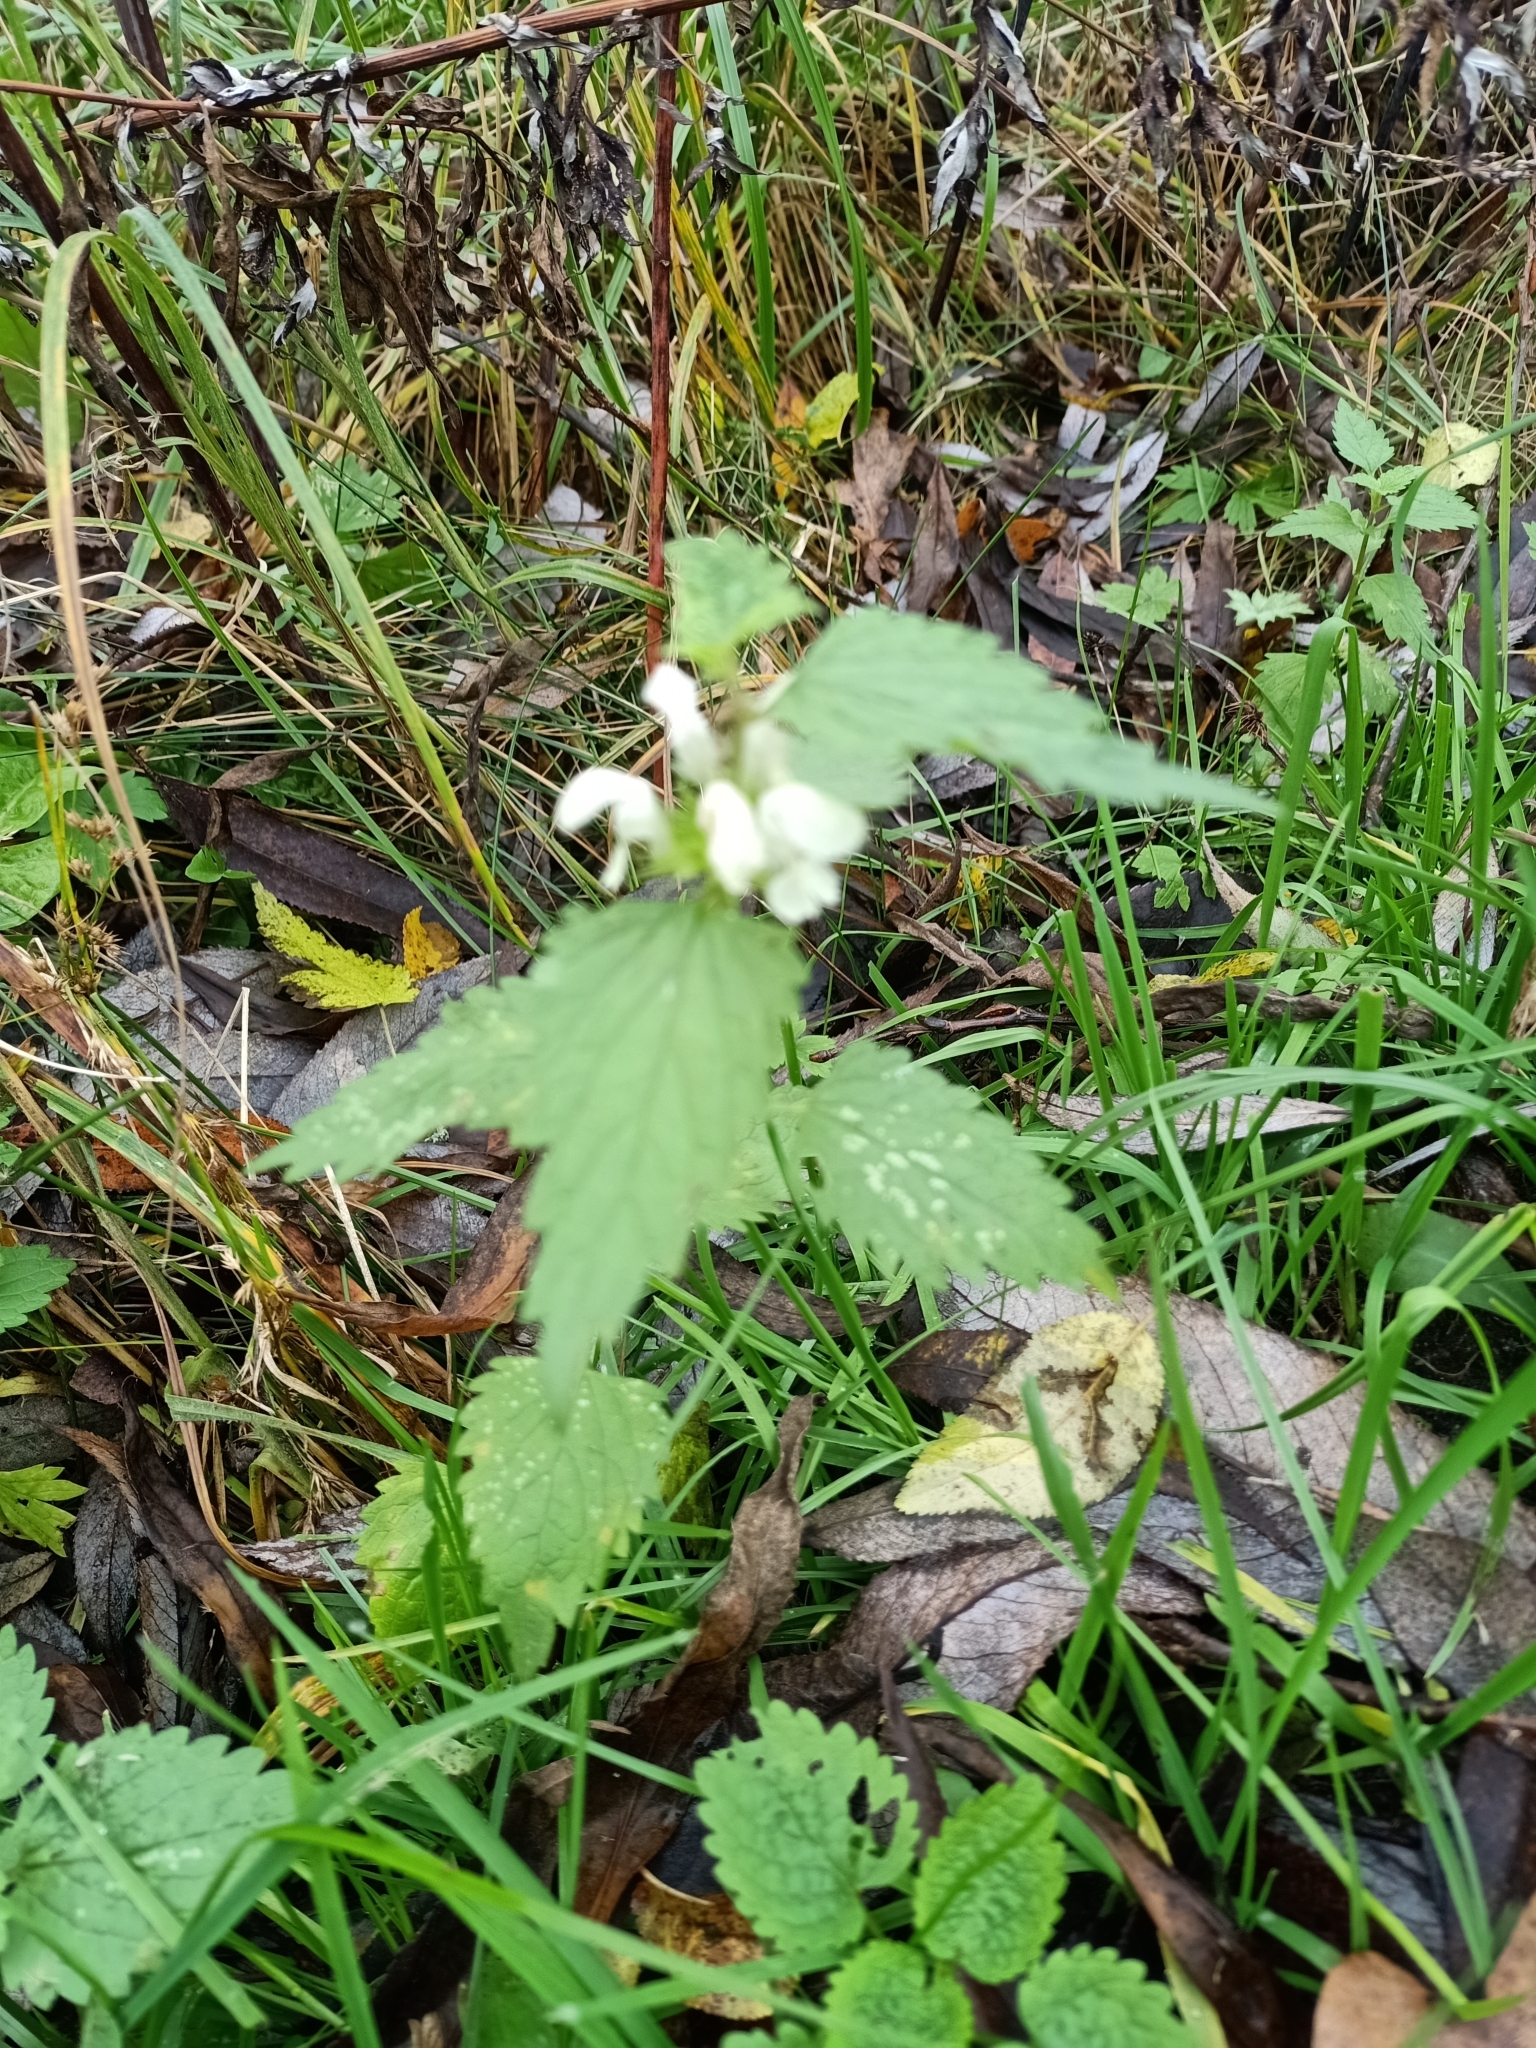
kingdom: Plantae
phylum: Tracheophyta
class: Magnoliopsida
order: Lamiales
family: Lamiaceae
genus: Lamium
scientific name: Lamium album
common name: White dead-nettle
